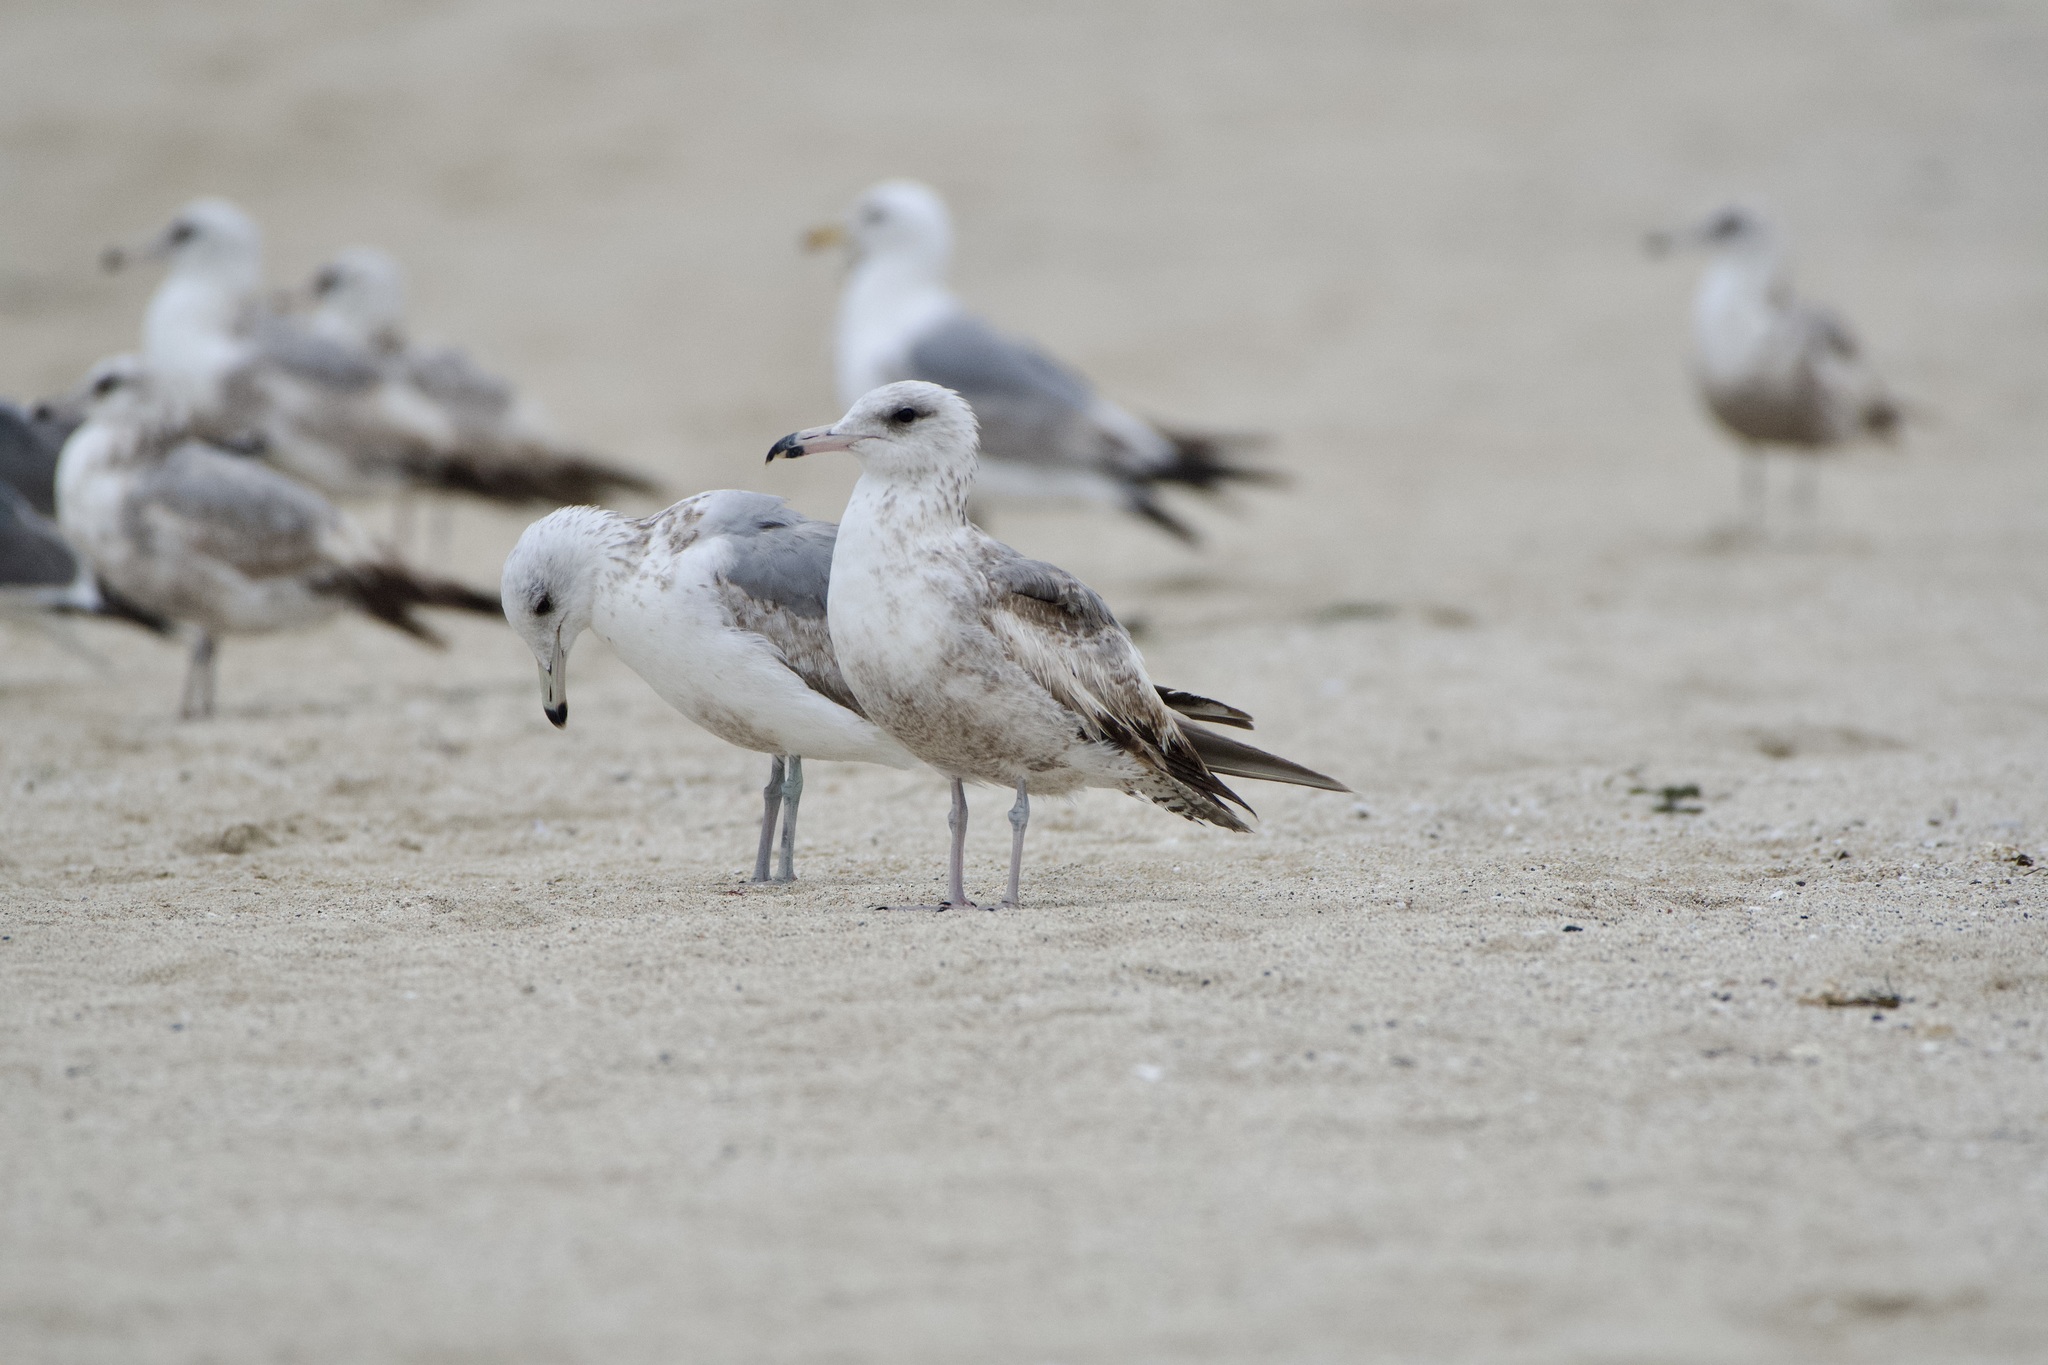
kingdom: Animalia
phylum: Chordata
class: Aves
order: Charadriiformes
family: Laridae
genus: Larus
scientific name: Larus californicus
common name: California gull
